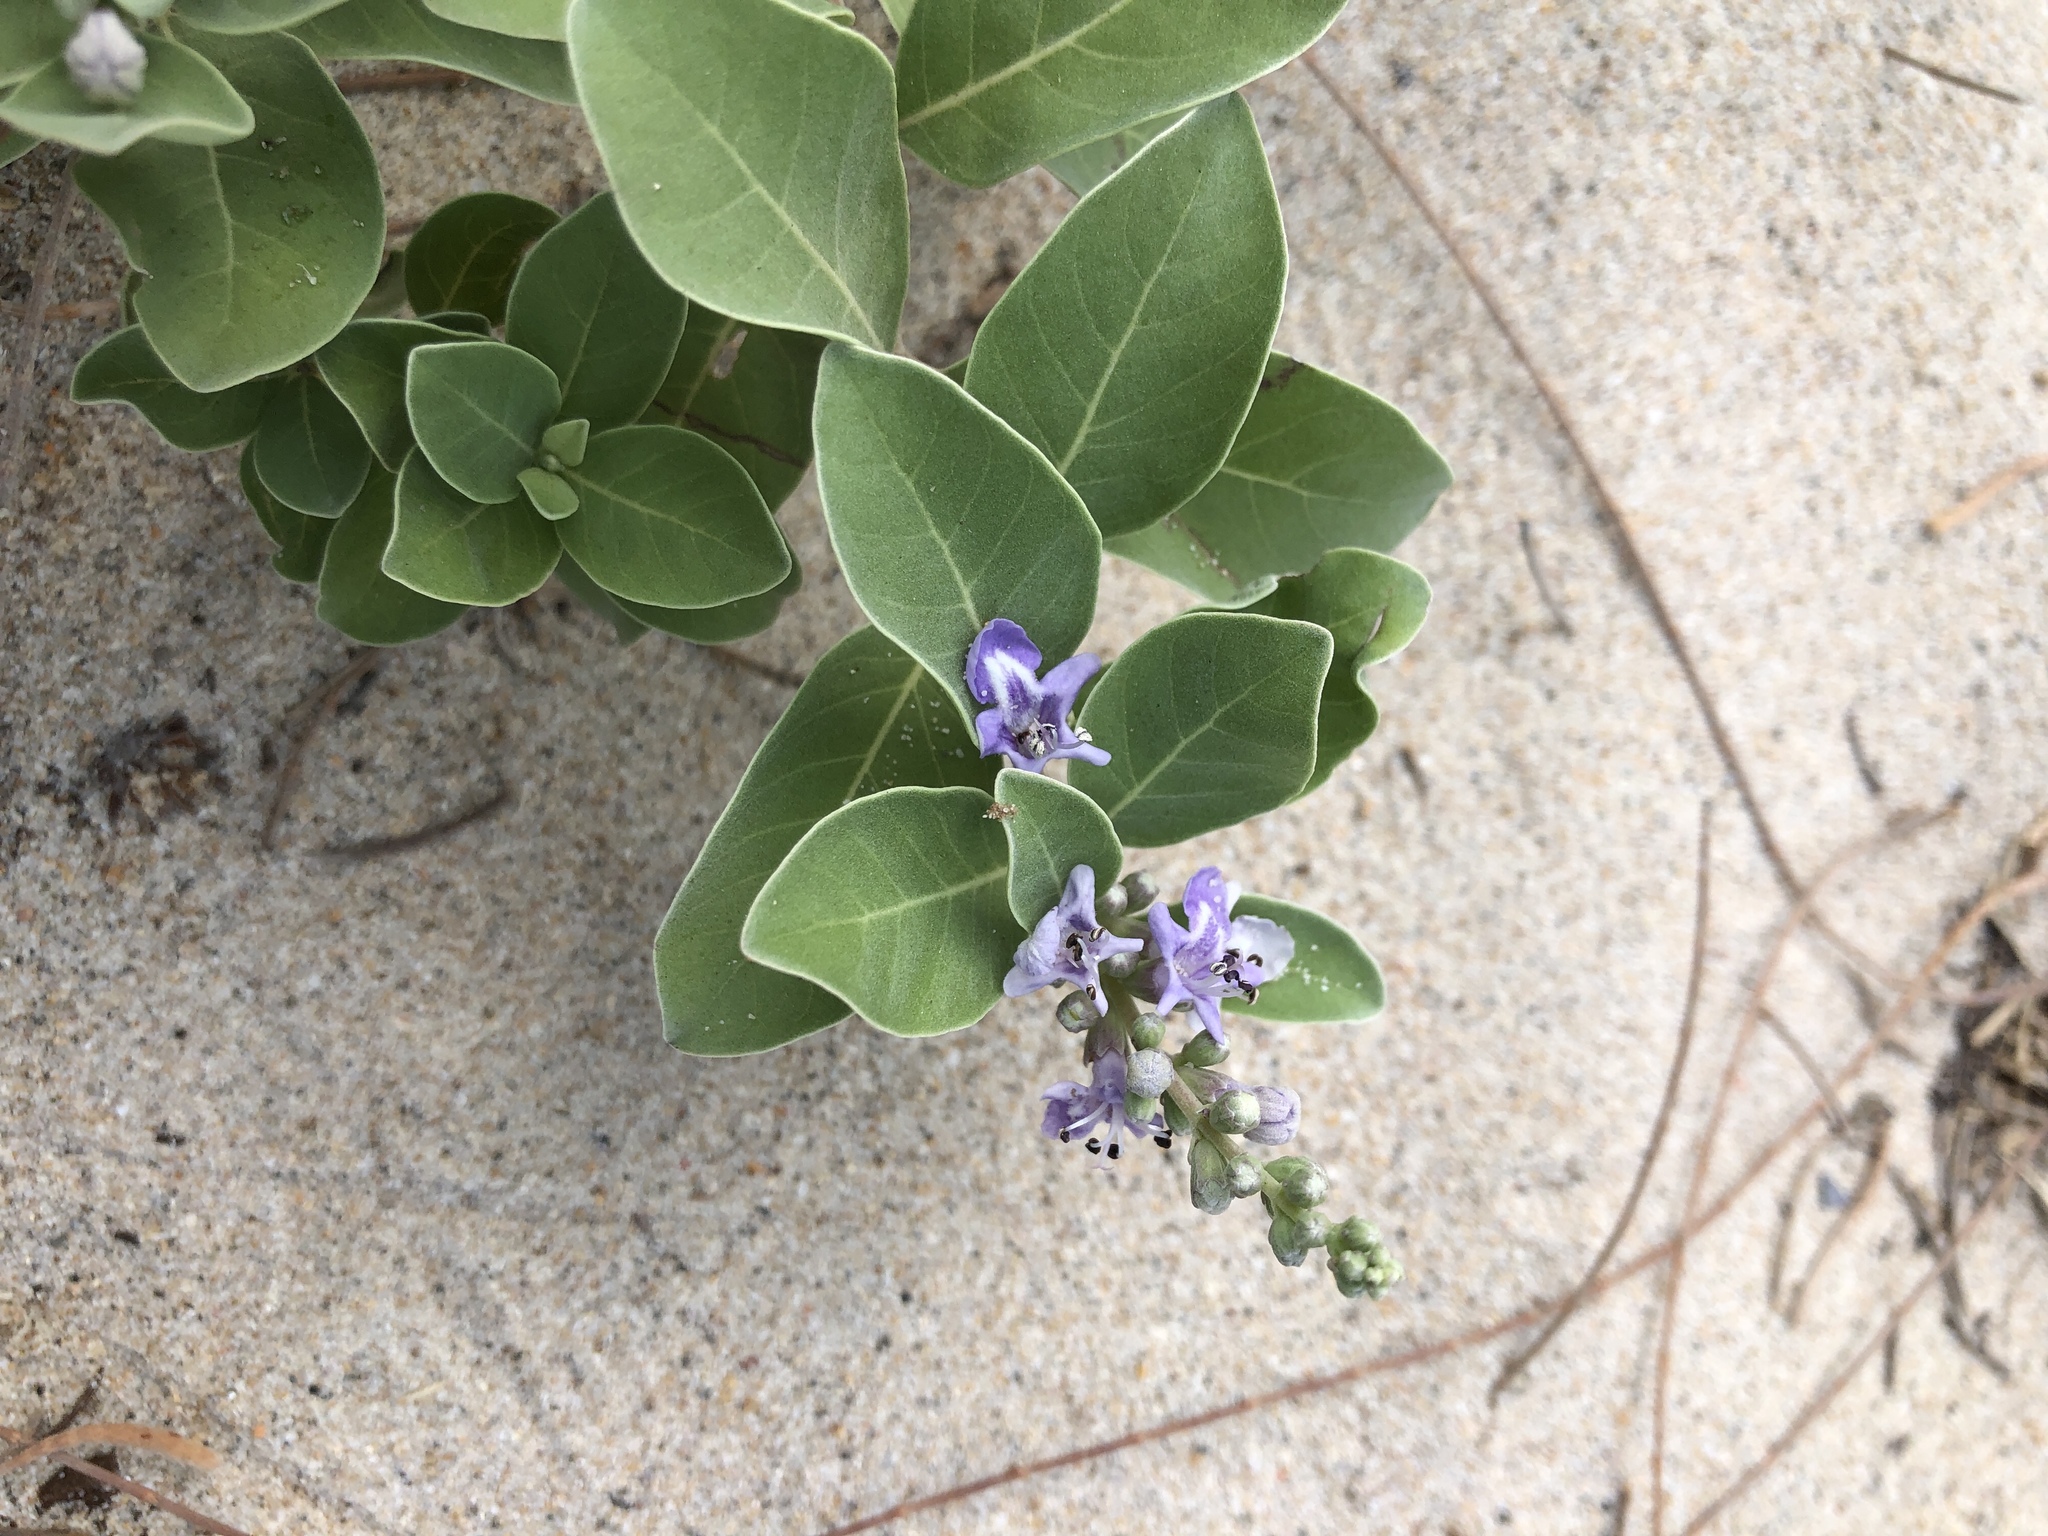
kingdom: Plantae
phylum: Tracheophyta
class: Magnoliopsida
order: Lamiales
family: Lamiaceae
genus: Vitex
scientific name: Vitex rotundifolia
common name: Beach vitex
